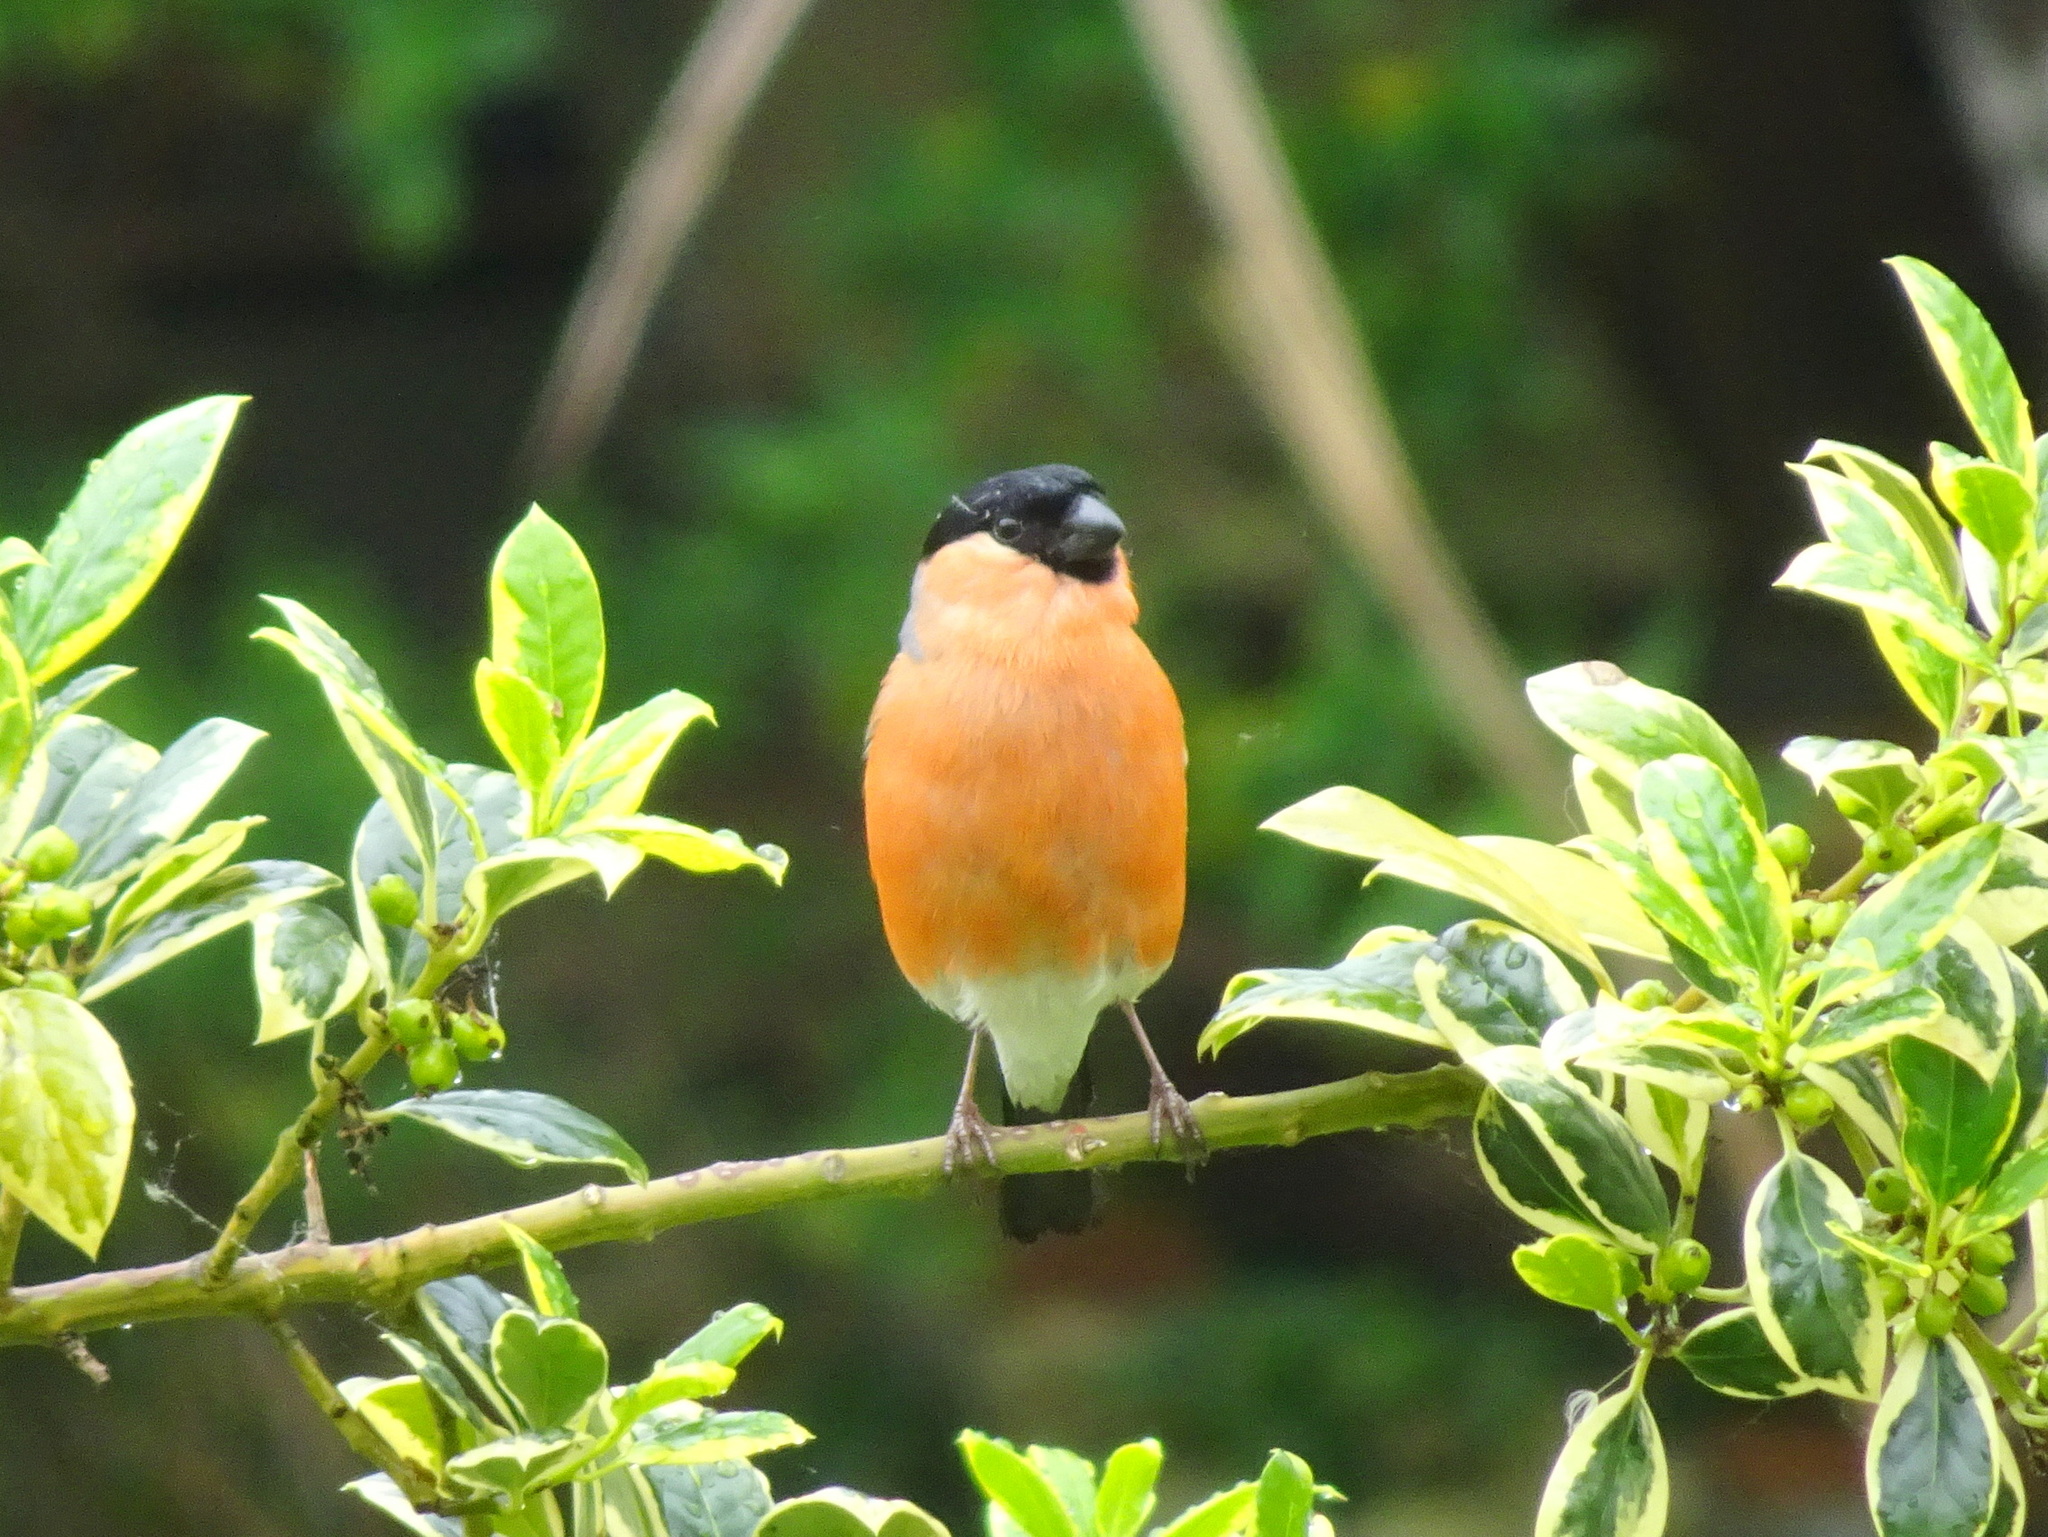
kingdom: Animalia
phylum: Chordata
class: Aves
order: Passeriformes
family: Fringillidae
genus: Pyrrhula
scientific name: Pyrrhula pyrrhula
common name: Eurasian bullfinch
